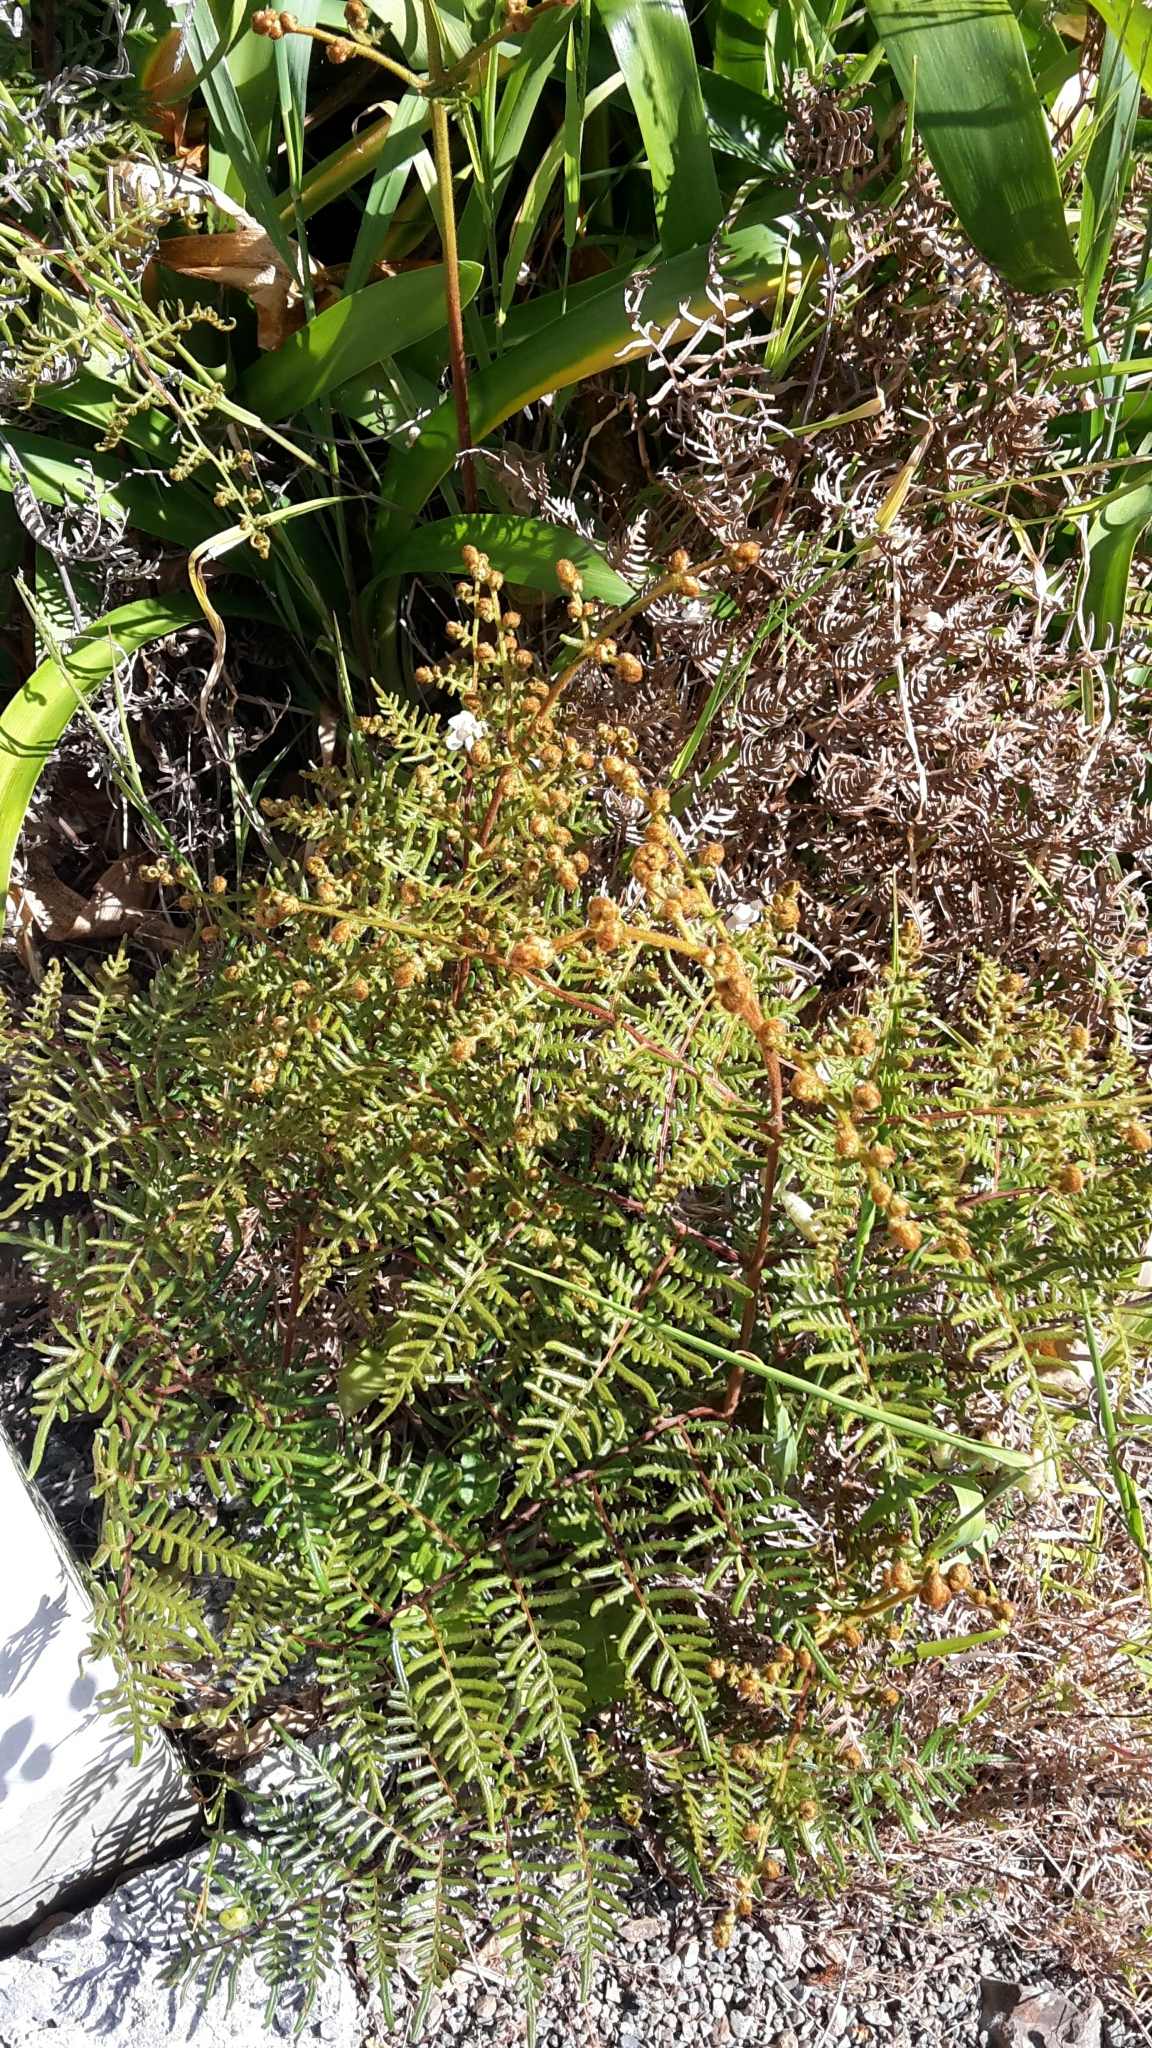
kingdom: Plantae
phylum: Tracheophyta
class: Polypodiopsida
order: Polypodiales
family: Dennstaedtiaceae
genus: Pteridium
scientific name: Pteridium esculentum
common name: Bracken fern
